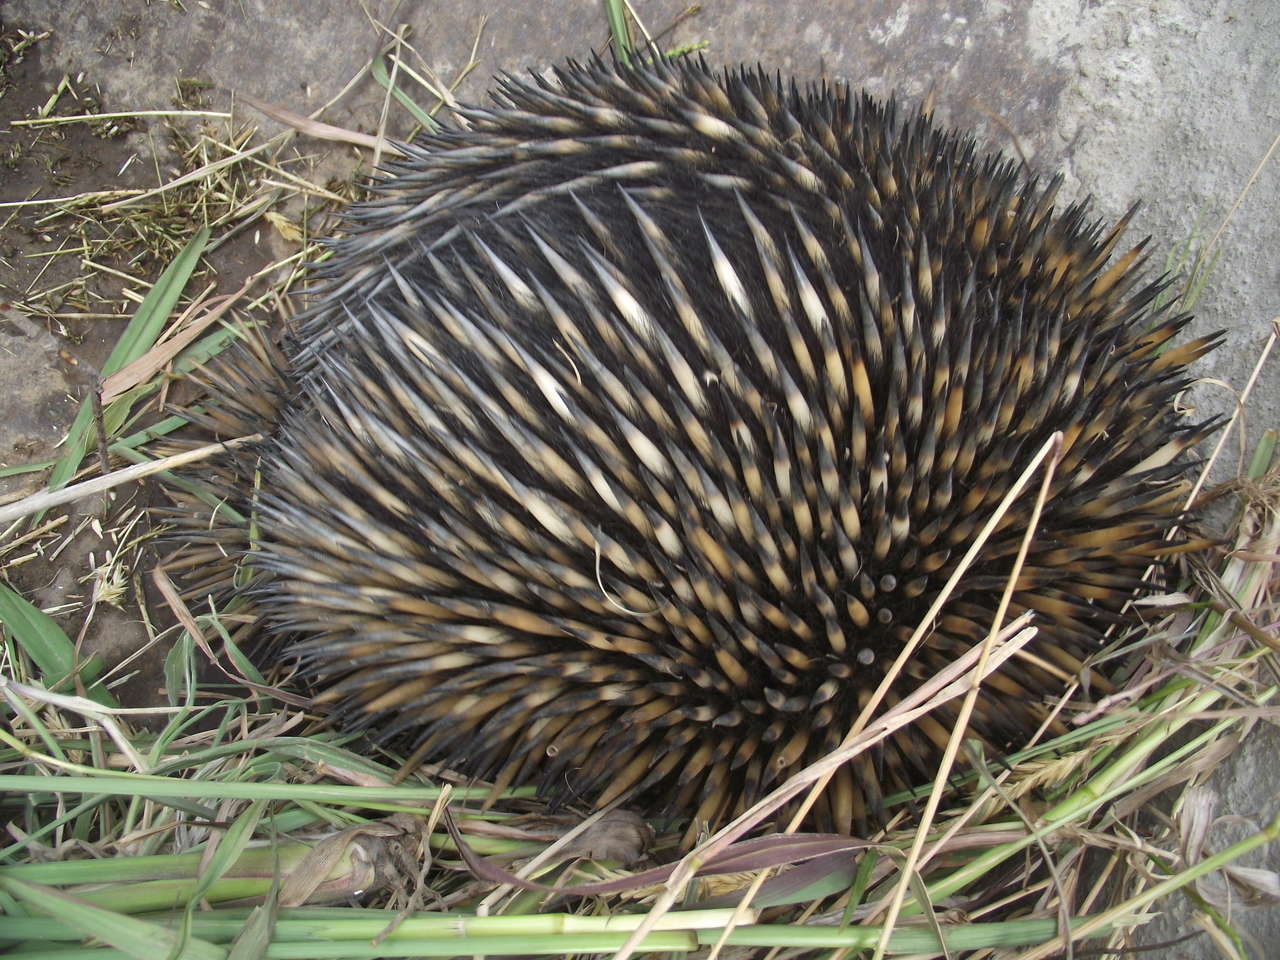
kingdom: Animalia
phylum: Chordata
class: Mammalia
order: Monotremata
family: Tachyglossidae
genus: Tachyglossus
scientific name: Tachyglossus aculeatus
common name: Short-beaked echidna
